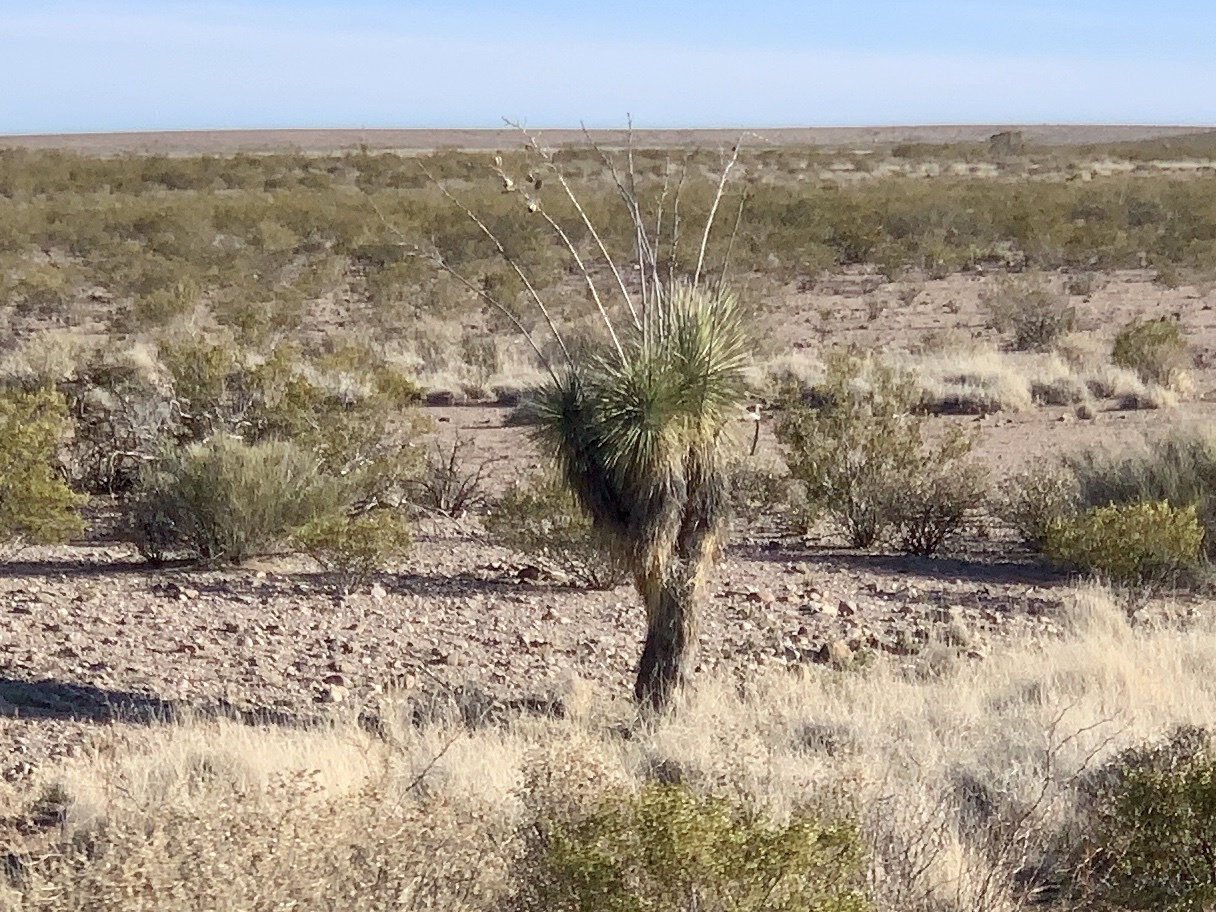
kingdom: Plantae
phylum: Tracheophyta
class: Liliopsida
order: Asparagales
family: Asparagaceae
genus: Yucca
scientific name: Yucca elata
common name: Palmella
